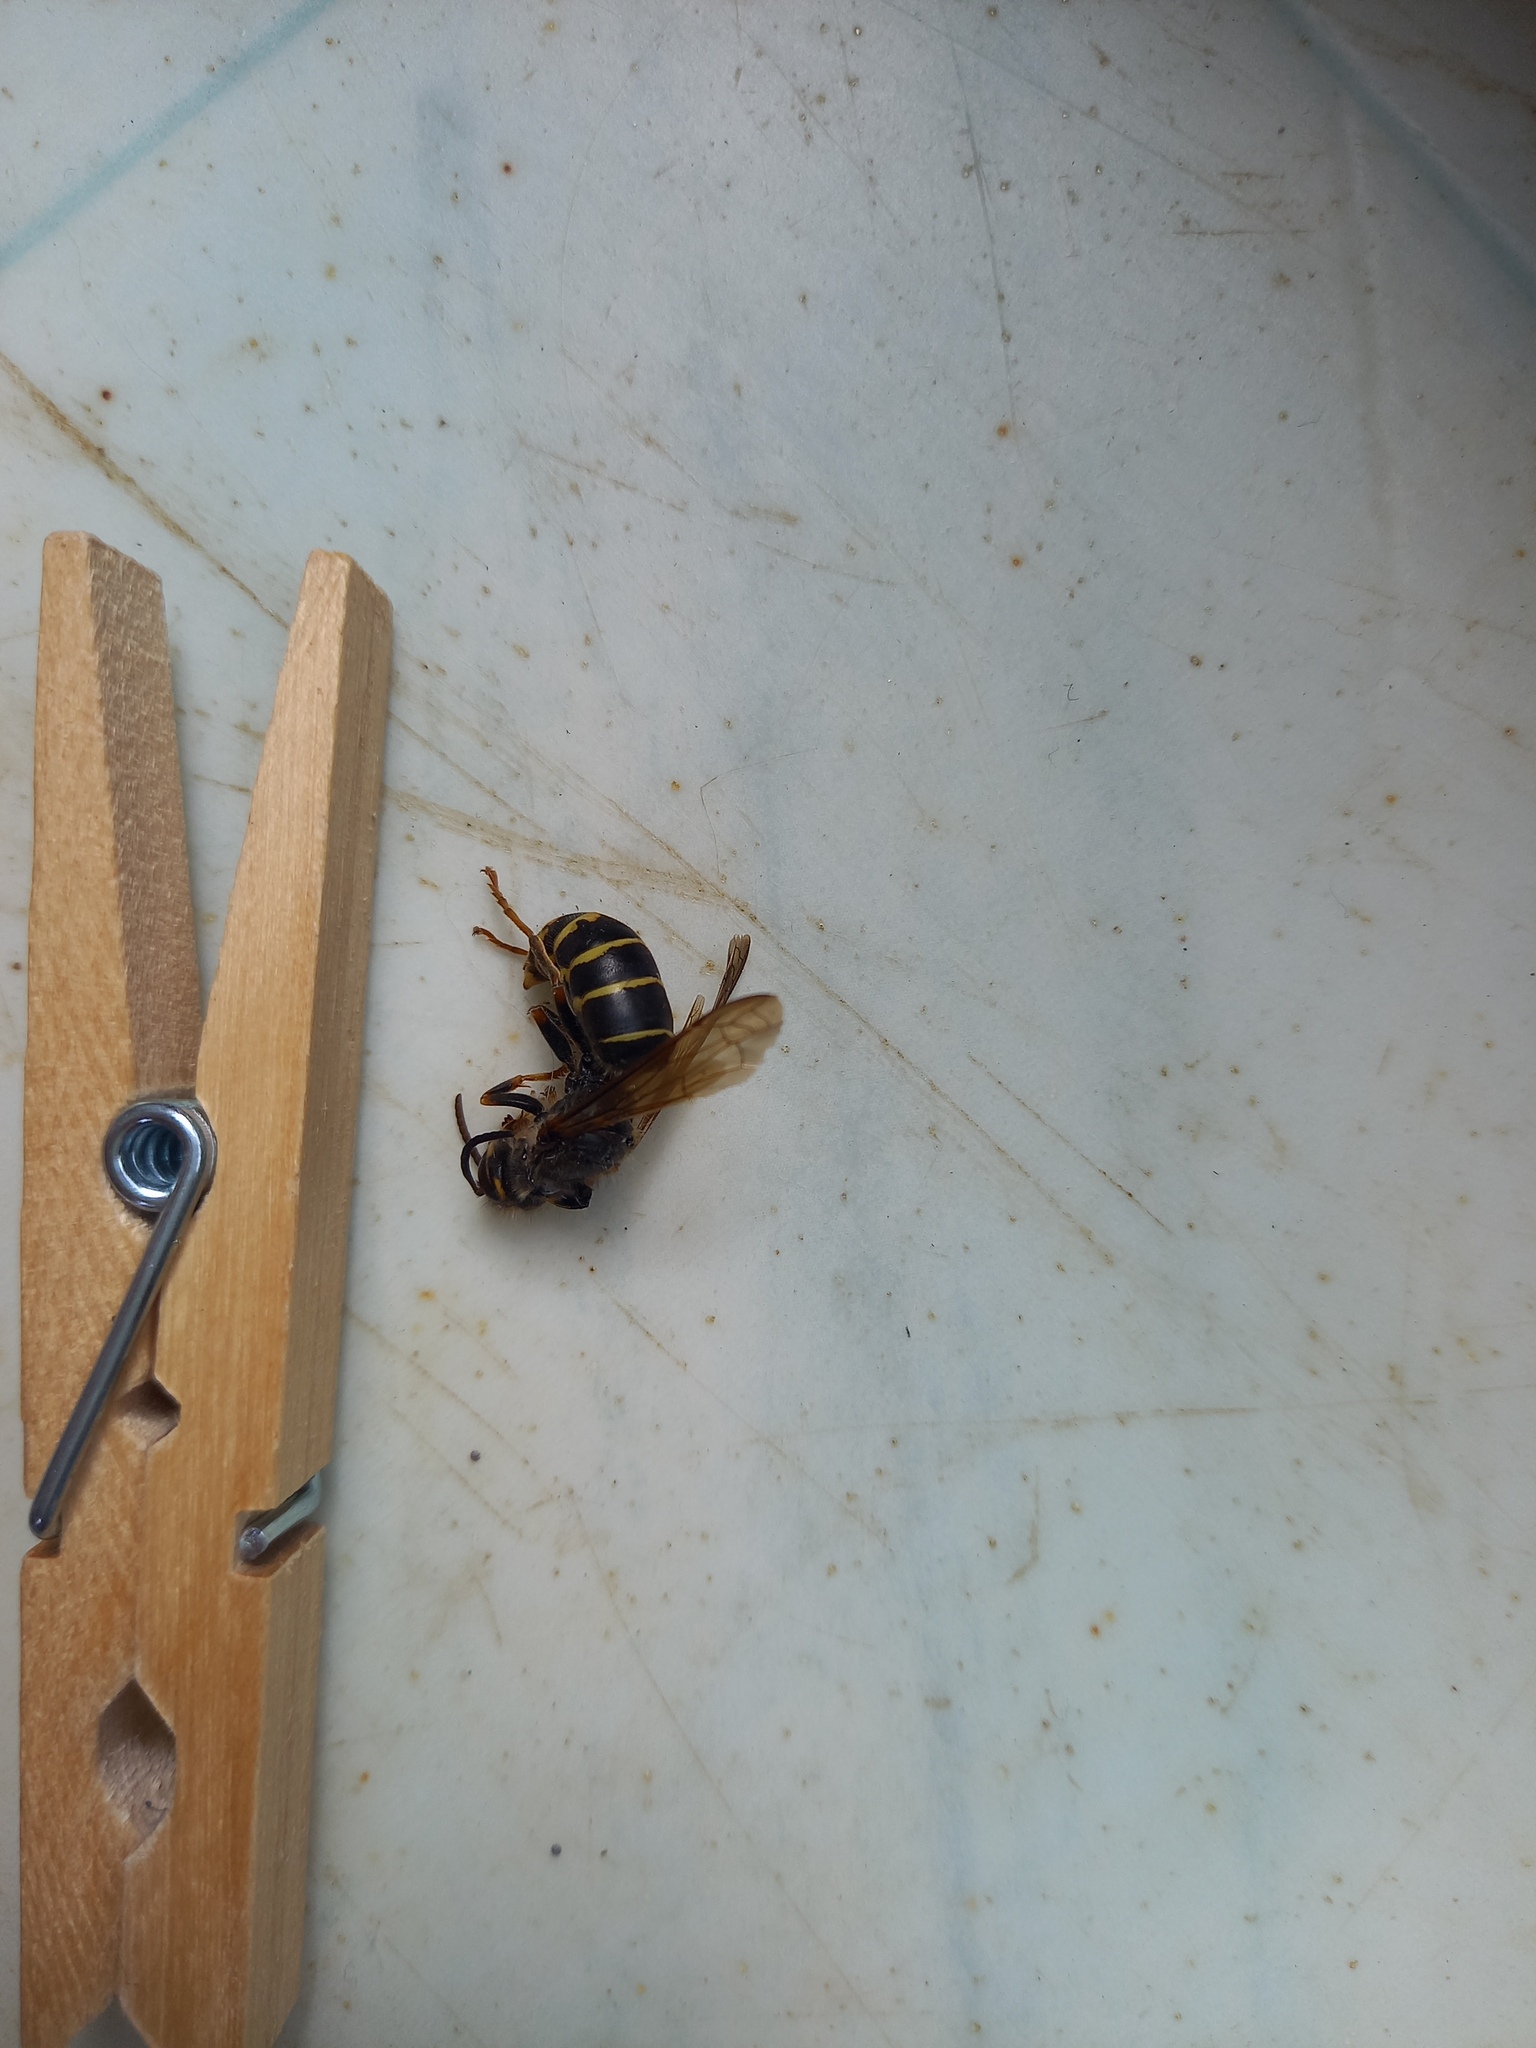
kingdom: Animalia
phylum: Arthropoda
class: Insecta
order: Hymenoptera
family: Vespidae
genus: Dolichovespula
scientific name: Dolichovespula media
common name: Median wasp
